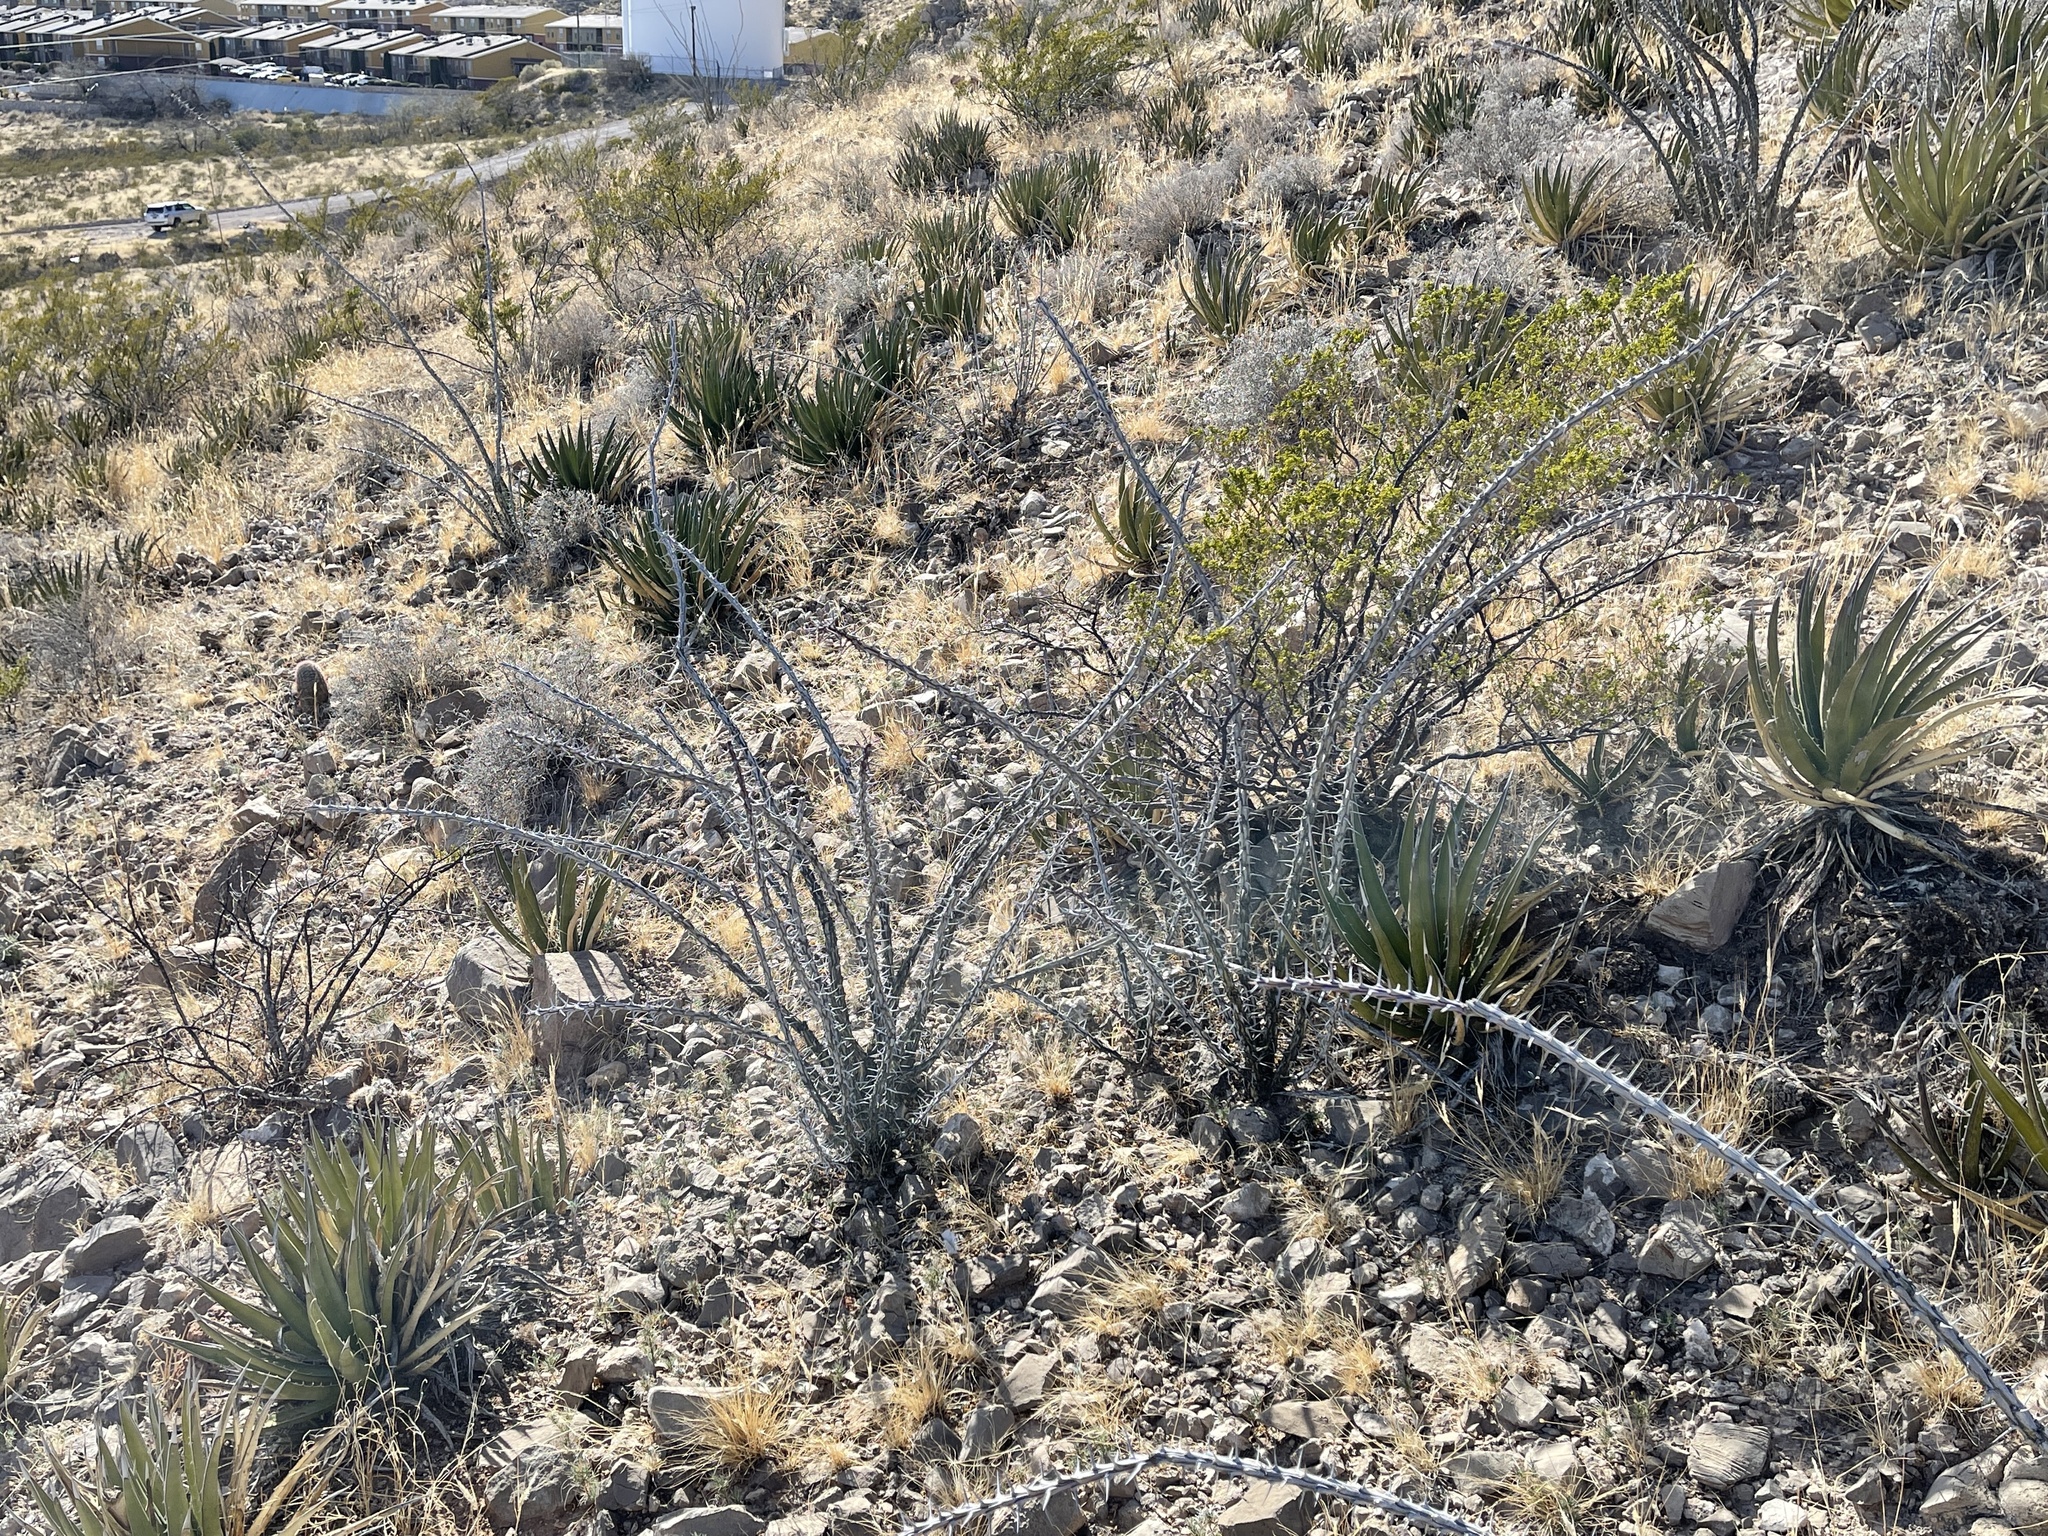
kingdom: Plantae
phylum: Tracheophyta
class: Magnoliopsida
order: Ericales
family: Fouquieriaceae
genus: Fouquieria
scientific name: Fouquieria splendens
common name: Vine-cactus
